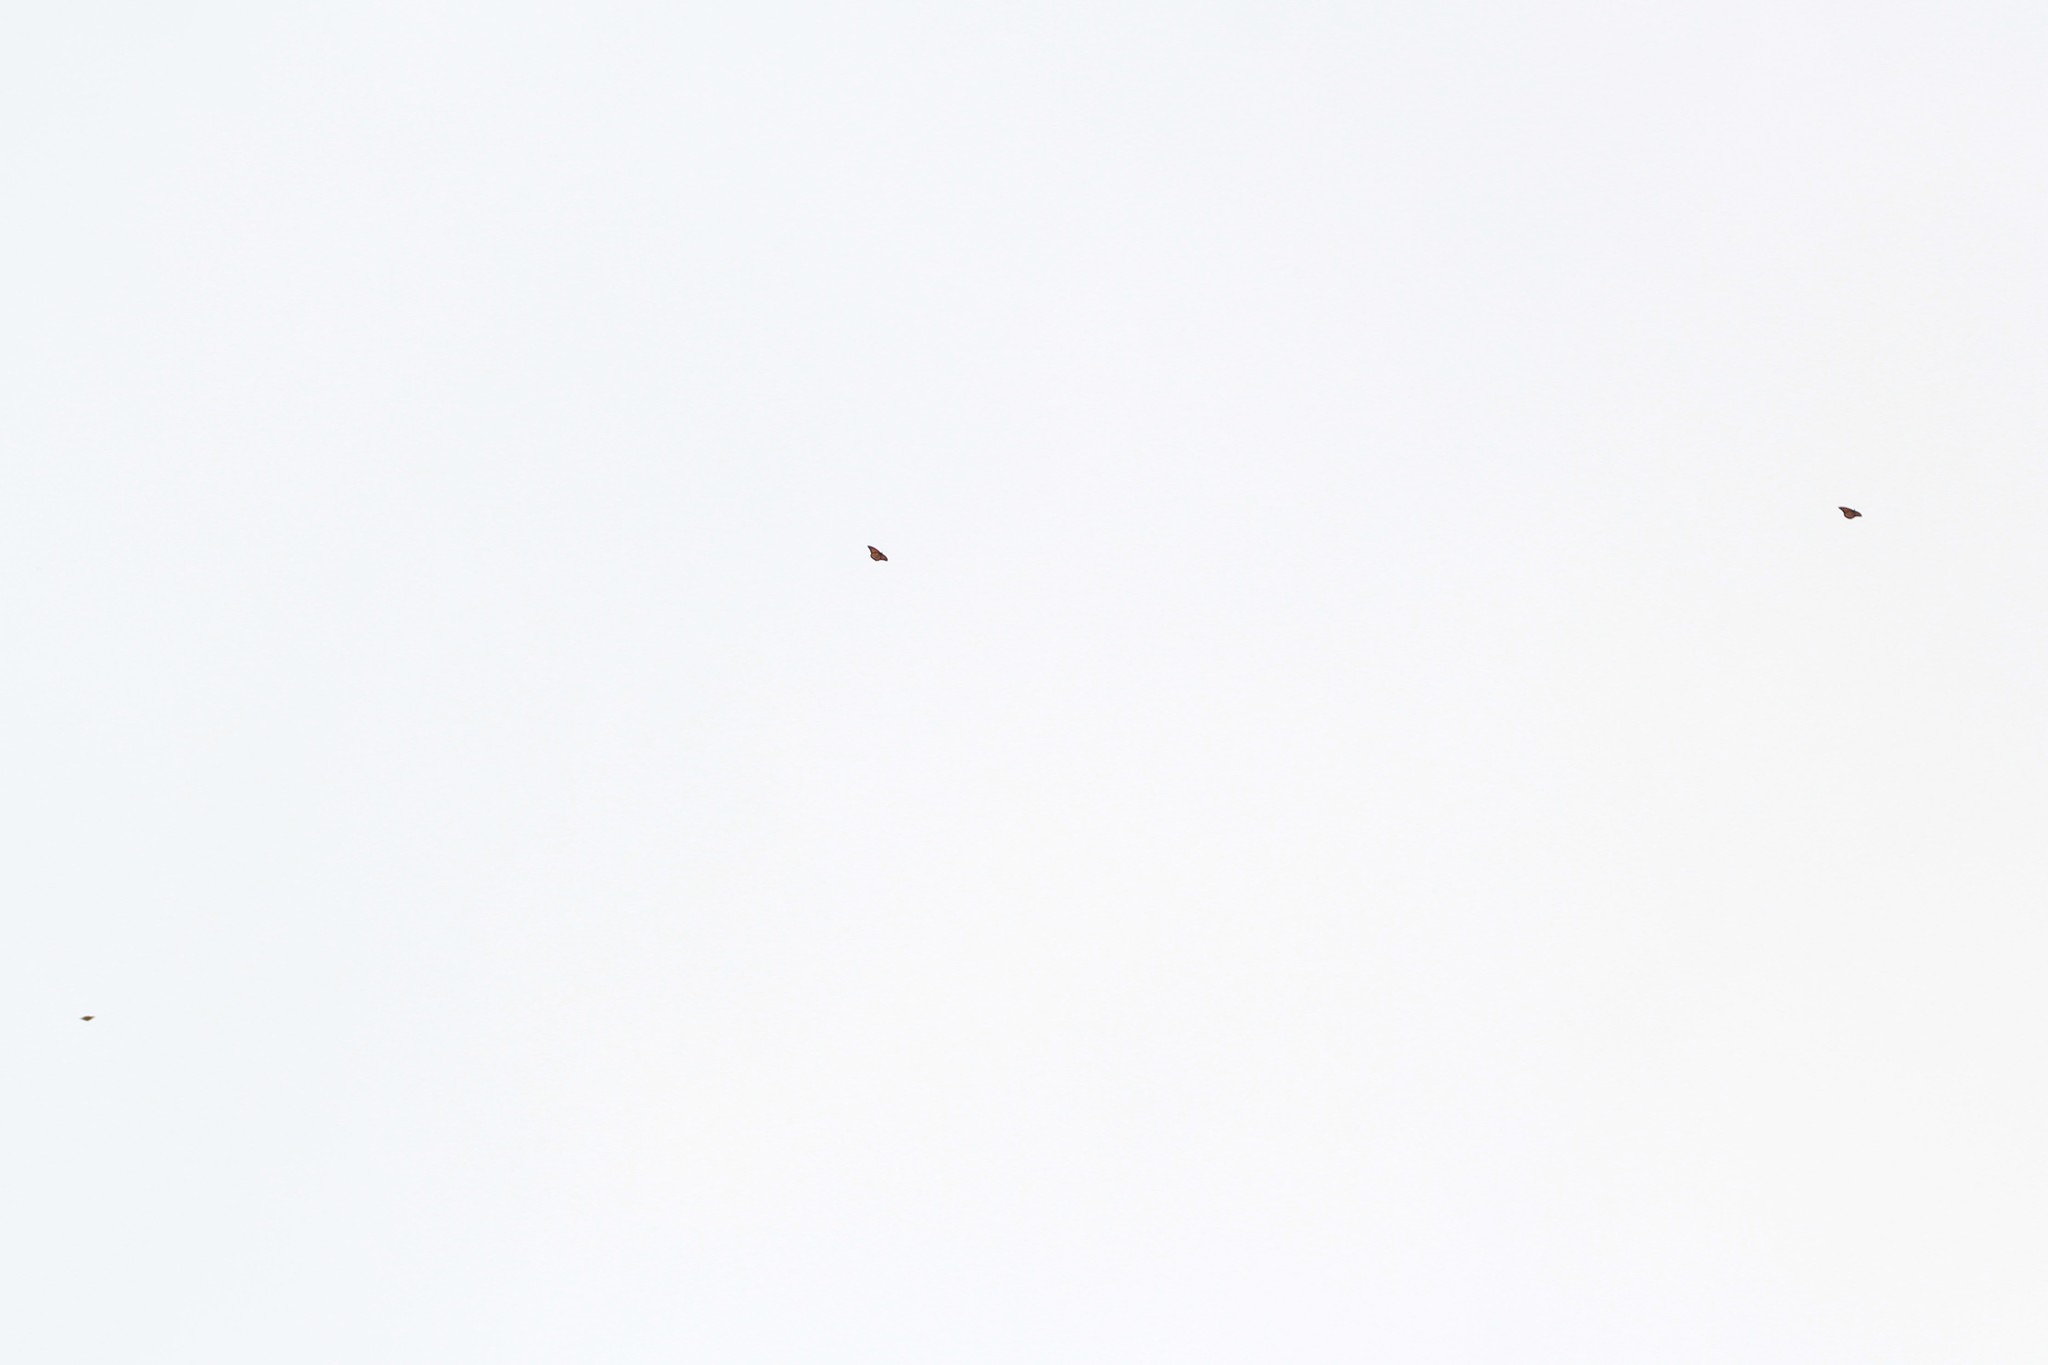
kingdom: Animalia
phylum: Arthropoda
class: Insecta
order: Lepidoptera
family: Nymphalidae
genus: Danaus
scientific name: Danaus plexippus
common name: Monarch
